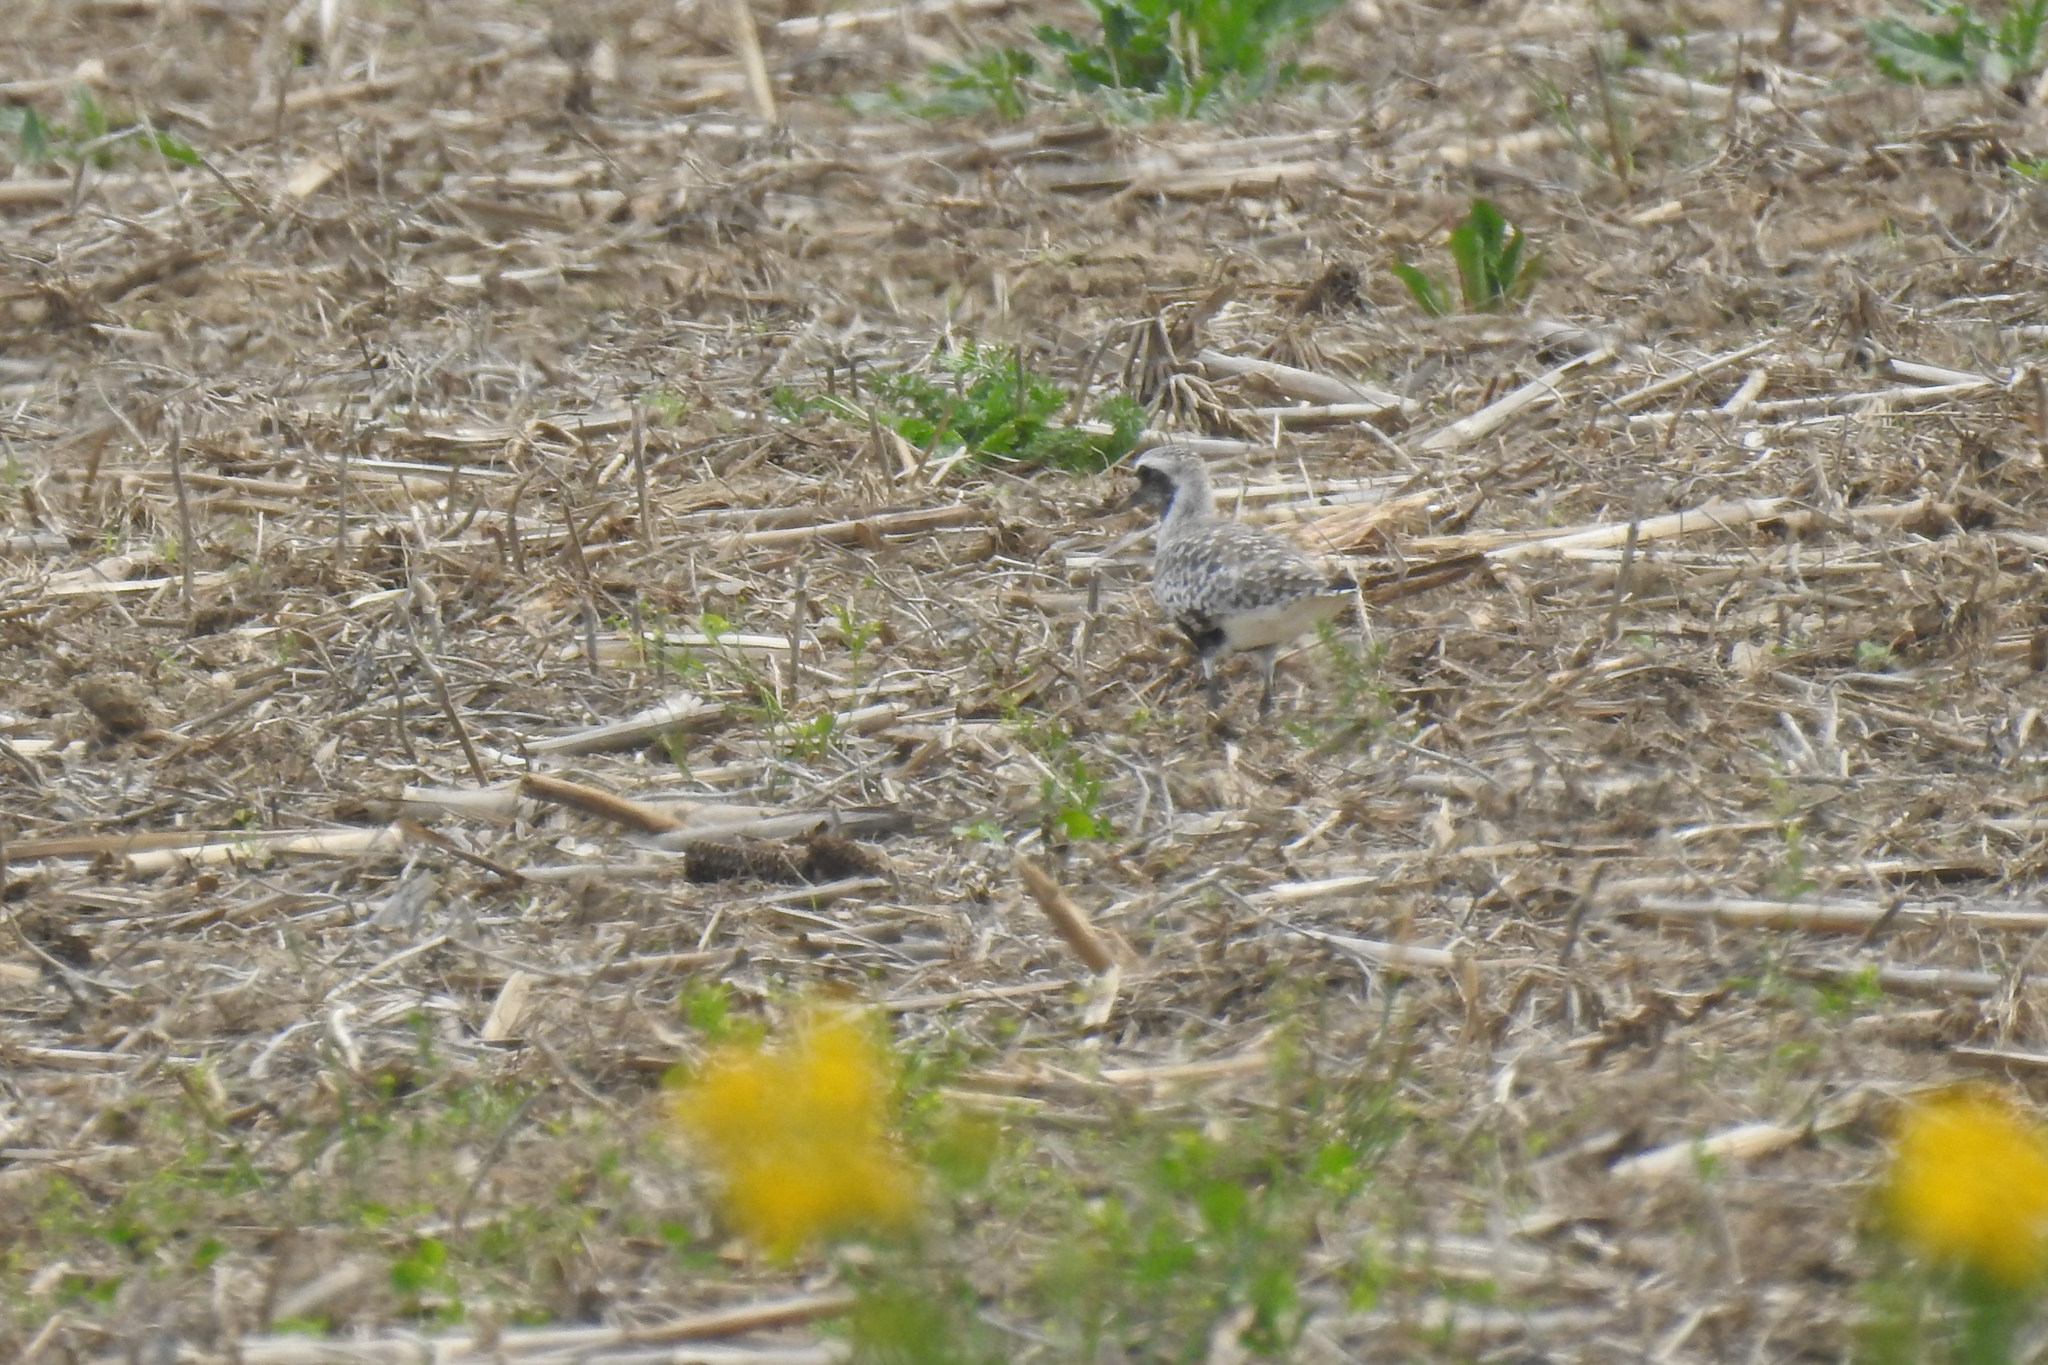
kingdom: Animalia
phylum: Chordata
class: Aves
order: Charadriiformes
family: Charadriidae
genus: Pluvialis
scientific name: Pluvialis squatarola
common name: Grey plover
